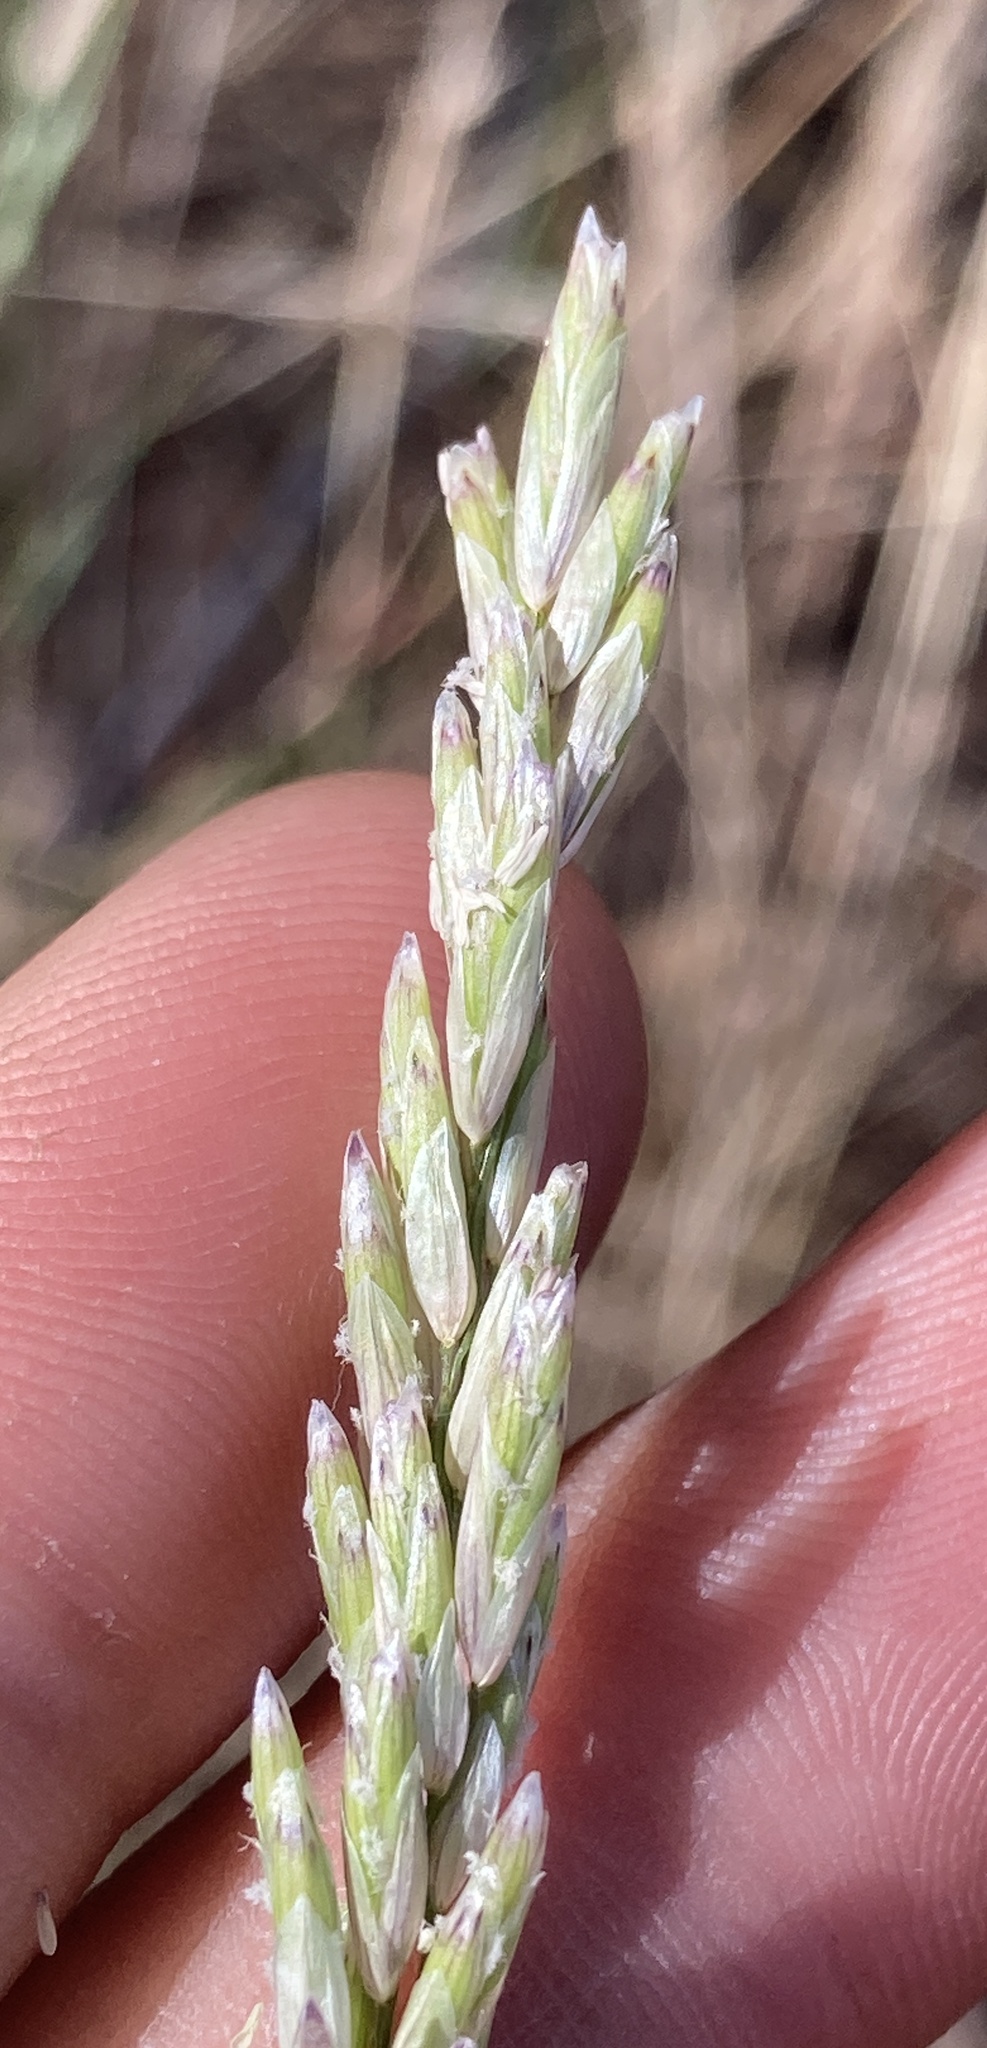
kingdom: Plantae
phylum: Tracheophyta
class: Liliopsida
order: Poales
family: Poaceae
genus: Melica
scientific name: Melica californica
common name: California melic
